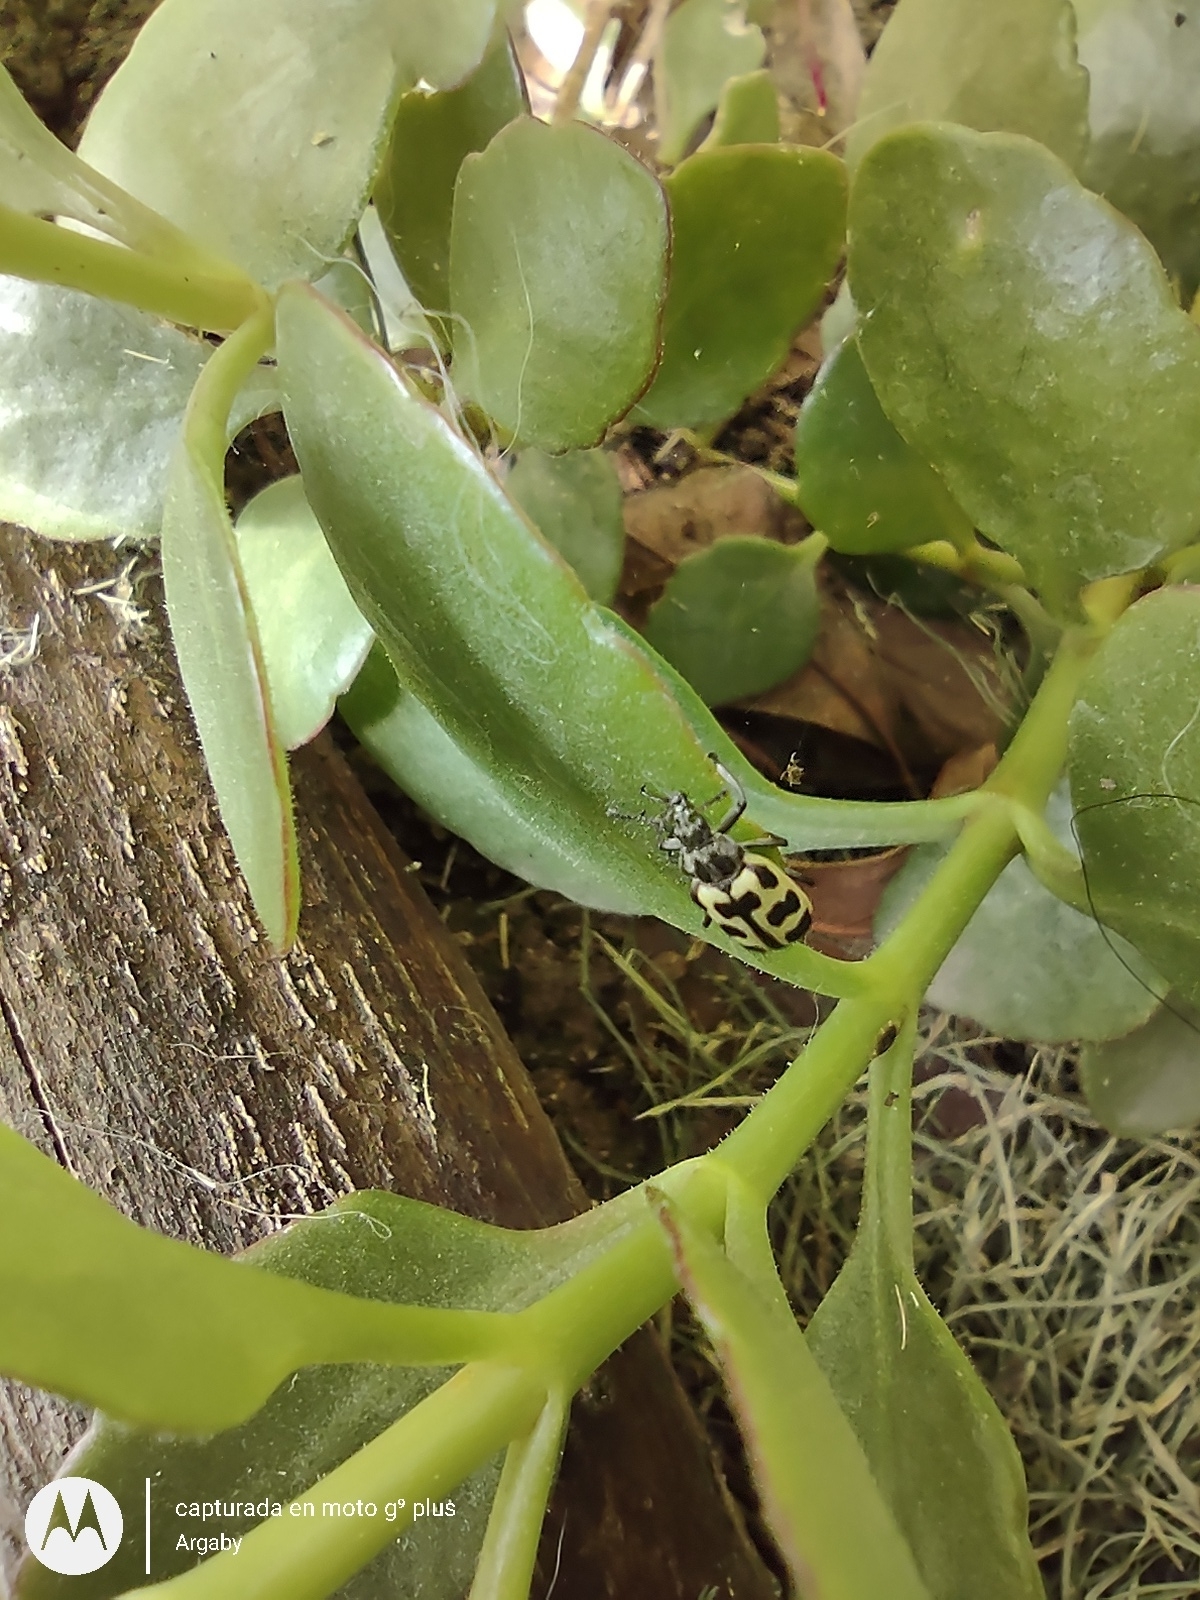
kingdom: Animalia
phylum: Arthropoda
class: Insecta
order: Coleoptera
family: Melyridae
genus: Astylus
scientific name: Astylus atromaculatus
